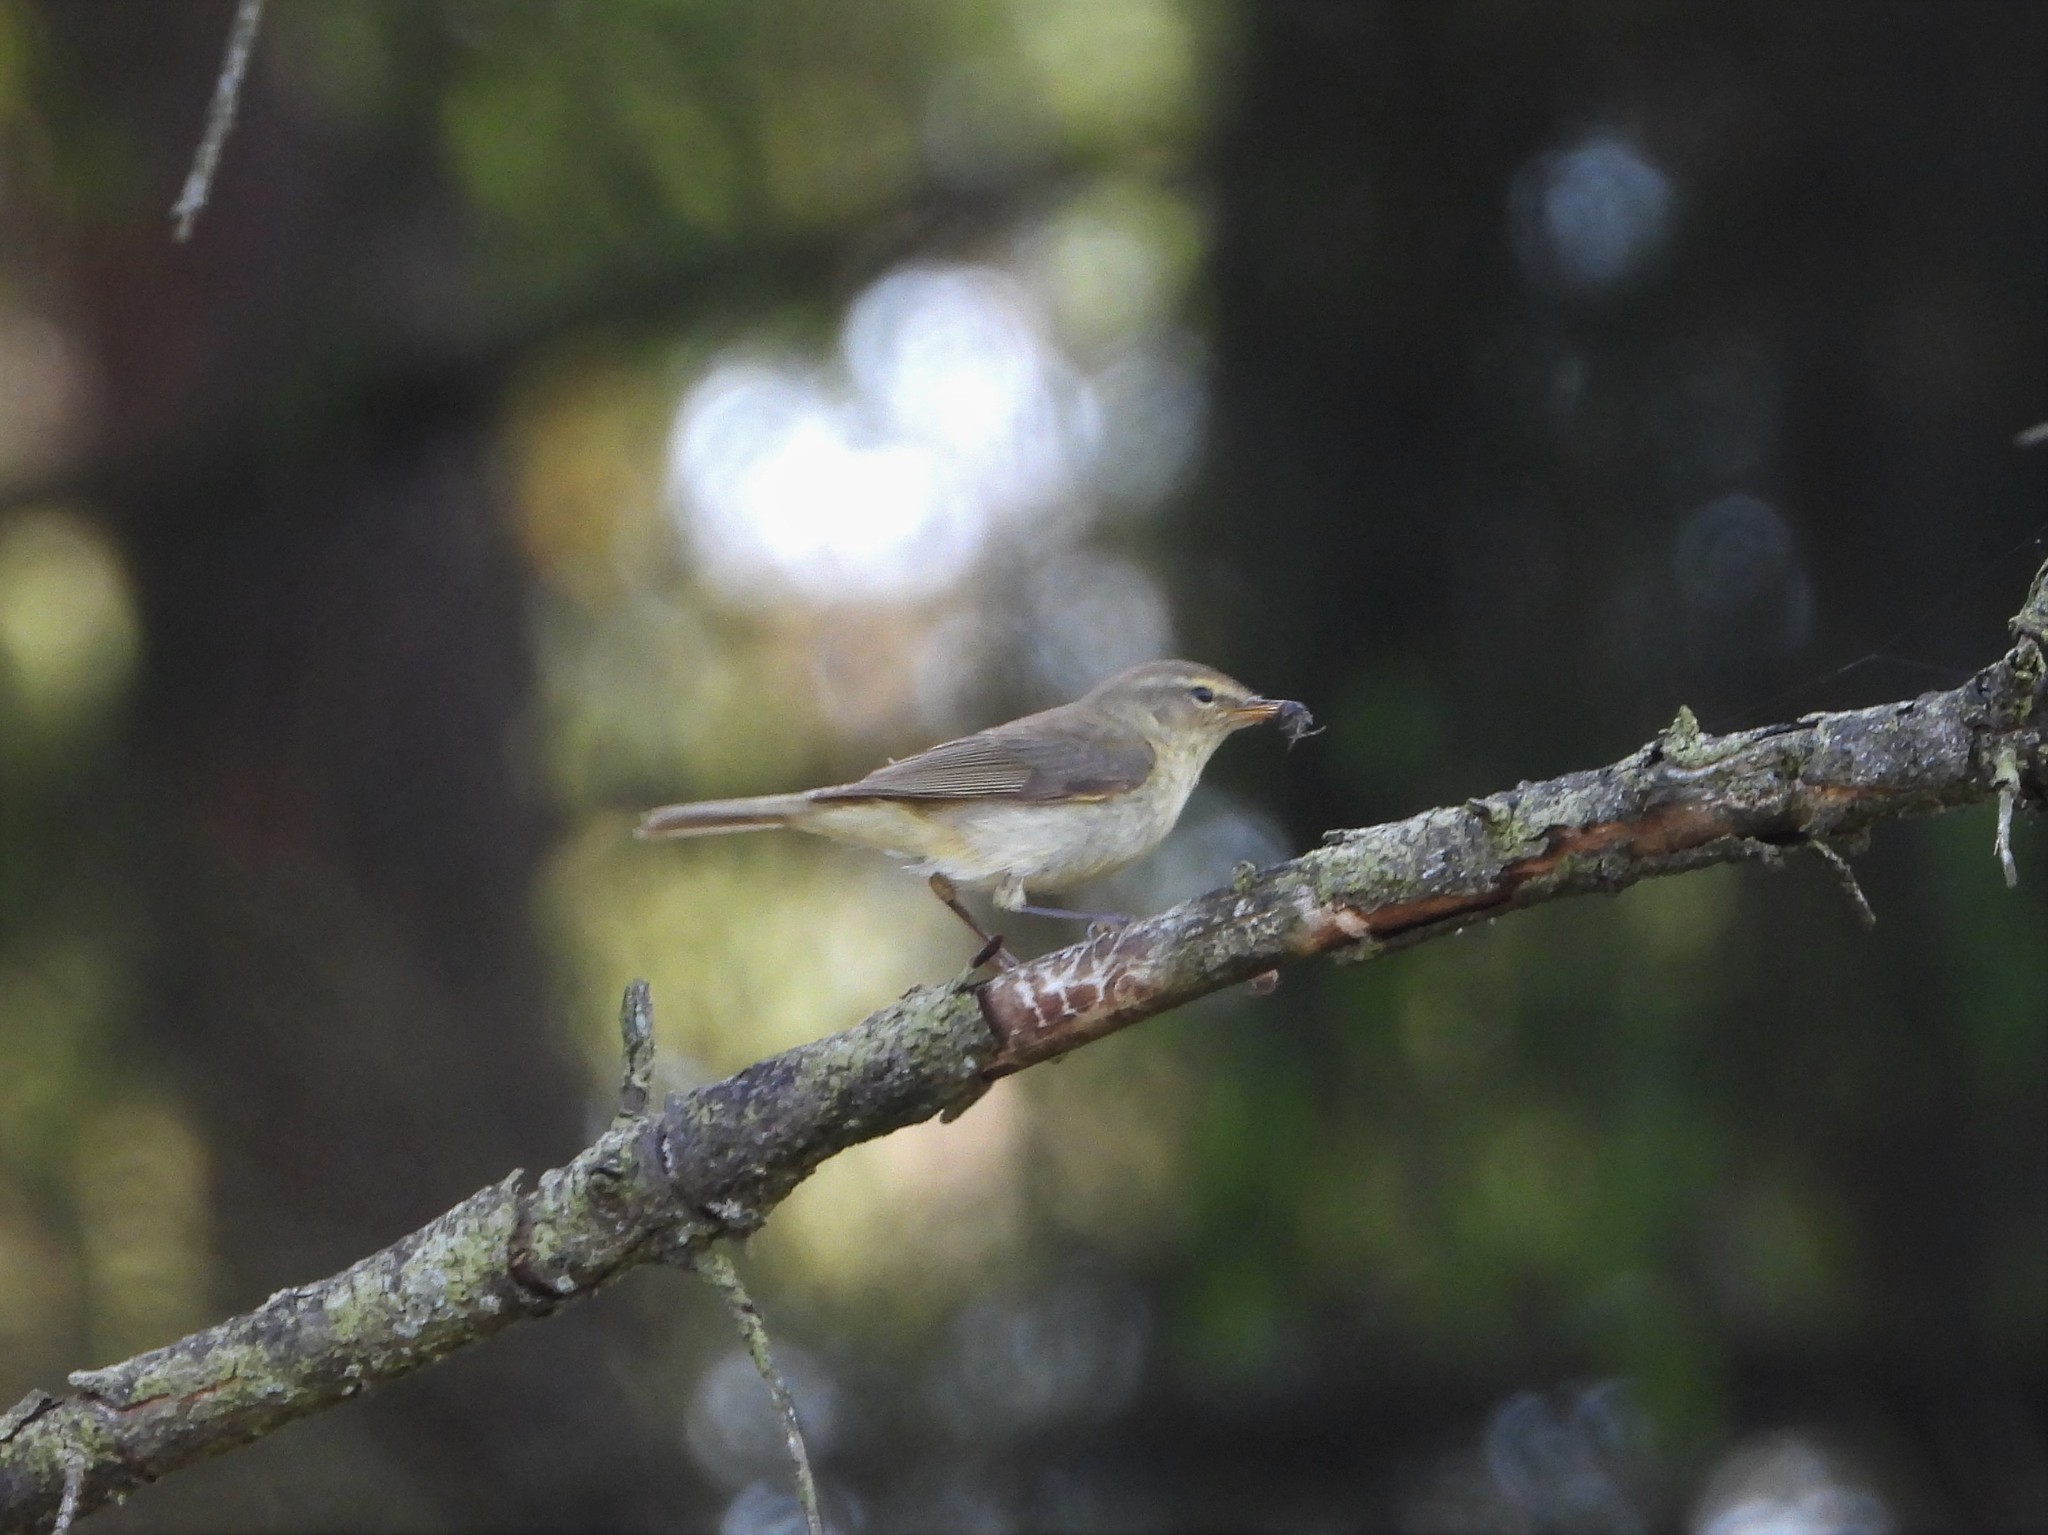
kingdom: Animalia
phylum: Chordata
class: Aves
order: Passeriformes
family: Phylloscopidae
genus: Phylloscopus
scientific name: Phylloscopus collybita
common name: Common chiffchaff
